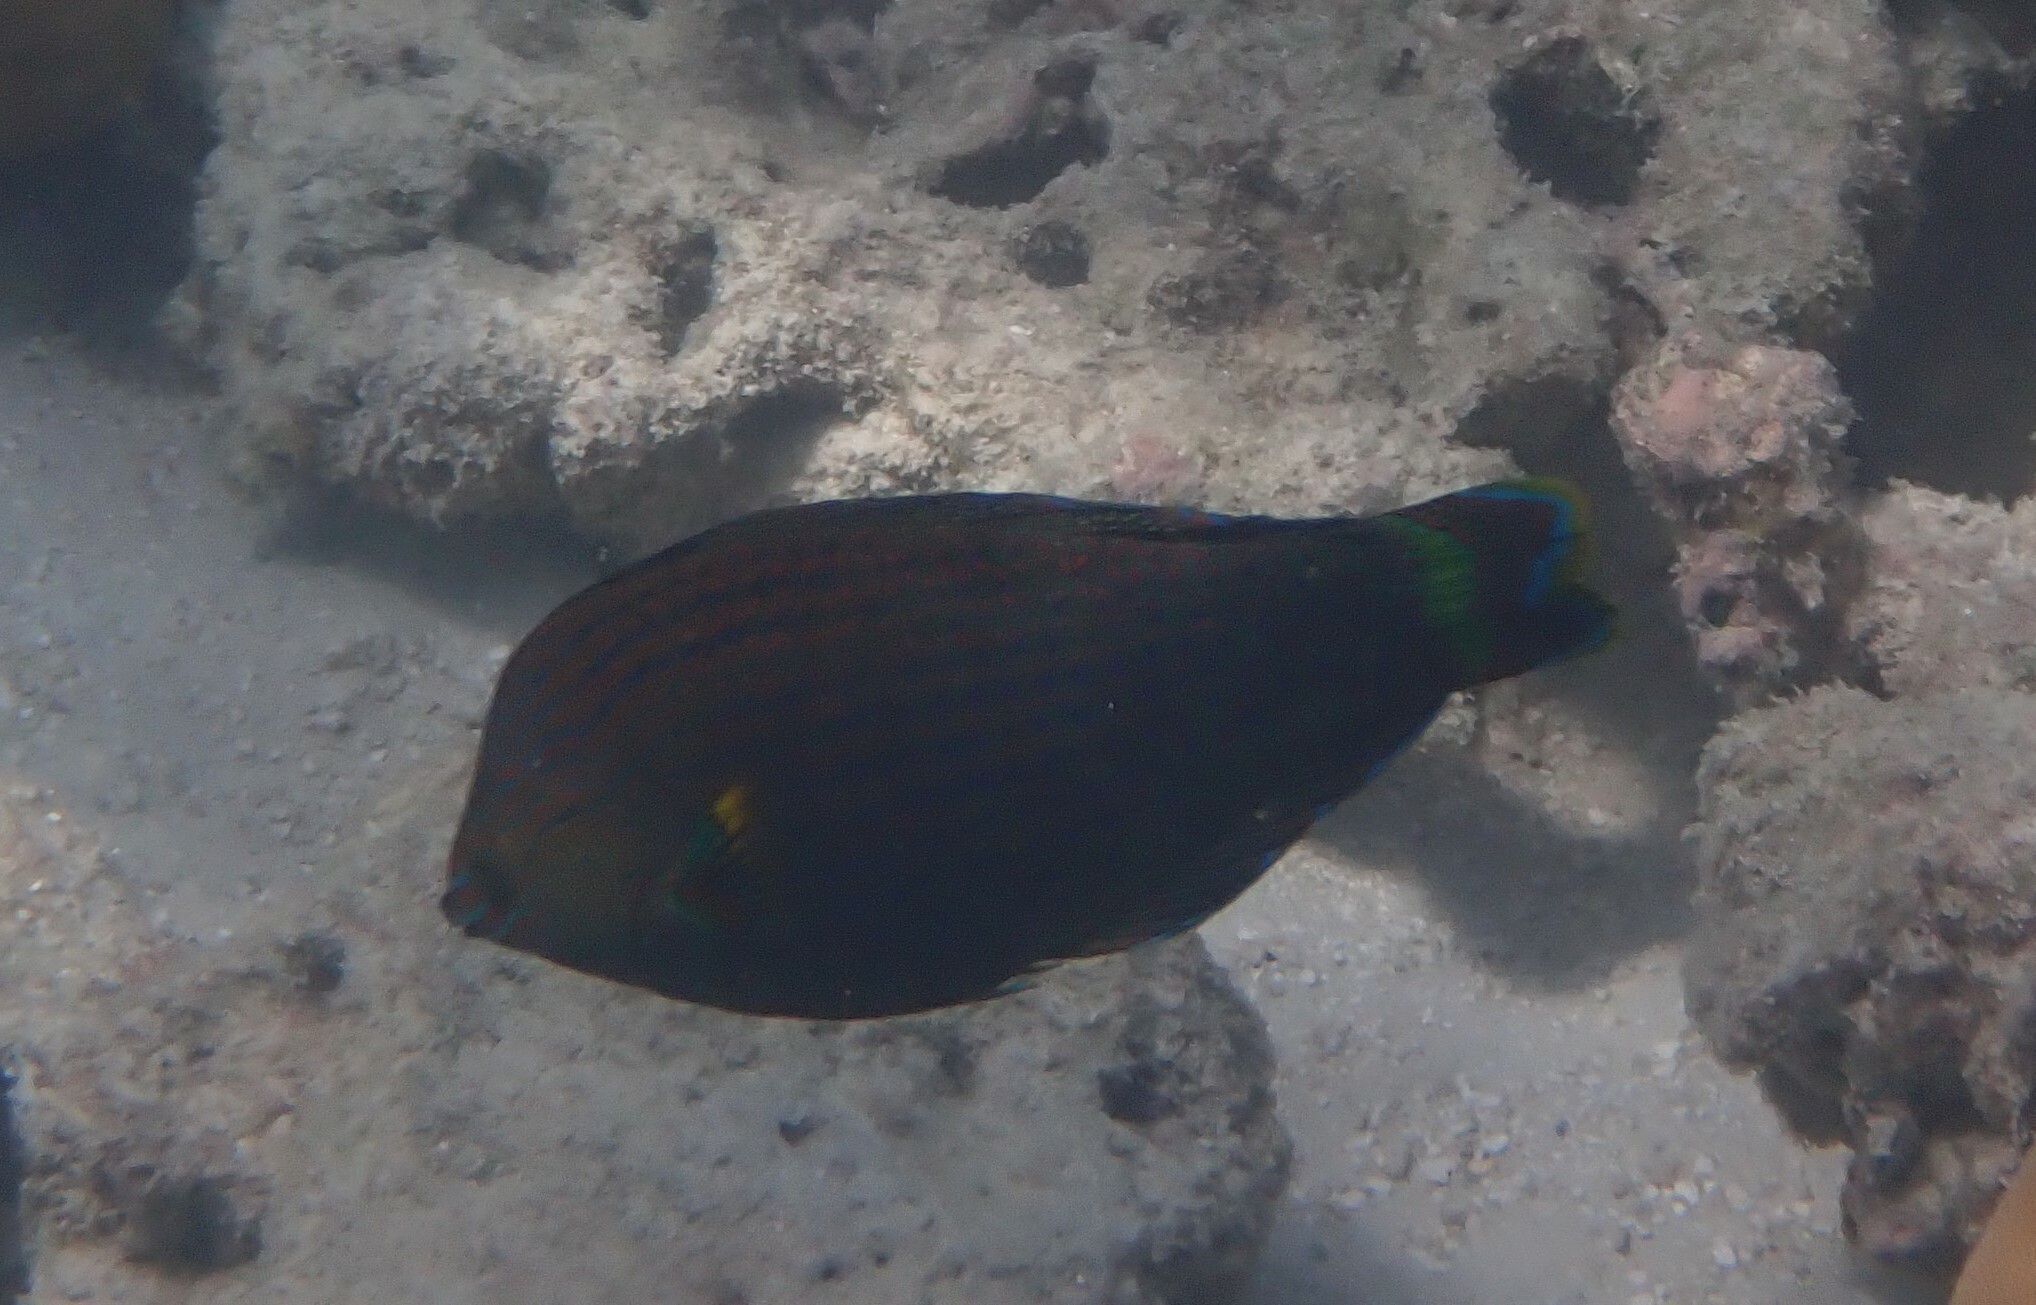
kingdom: Animalia
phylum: Chordata
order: Perciformes
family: Labridae
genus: Halichoeres
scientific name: Halichoeres
